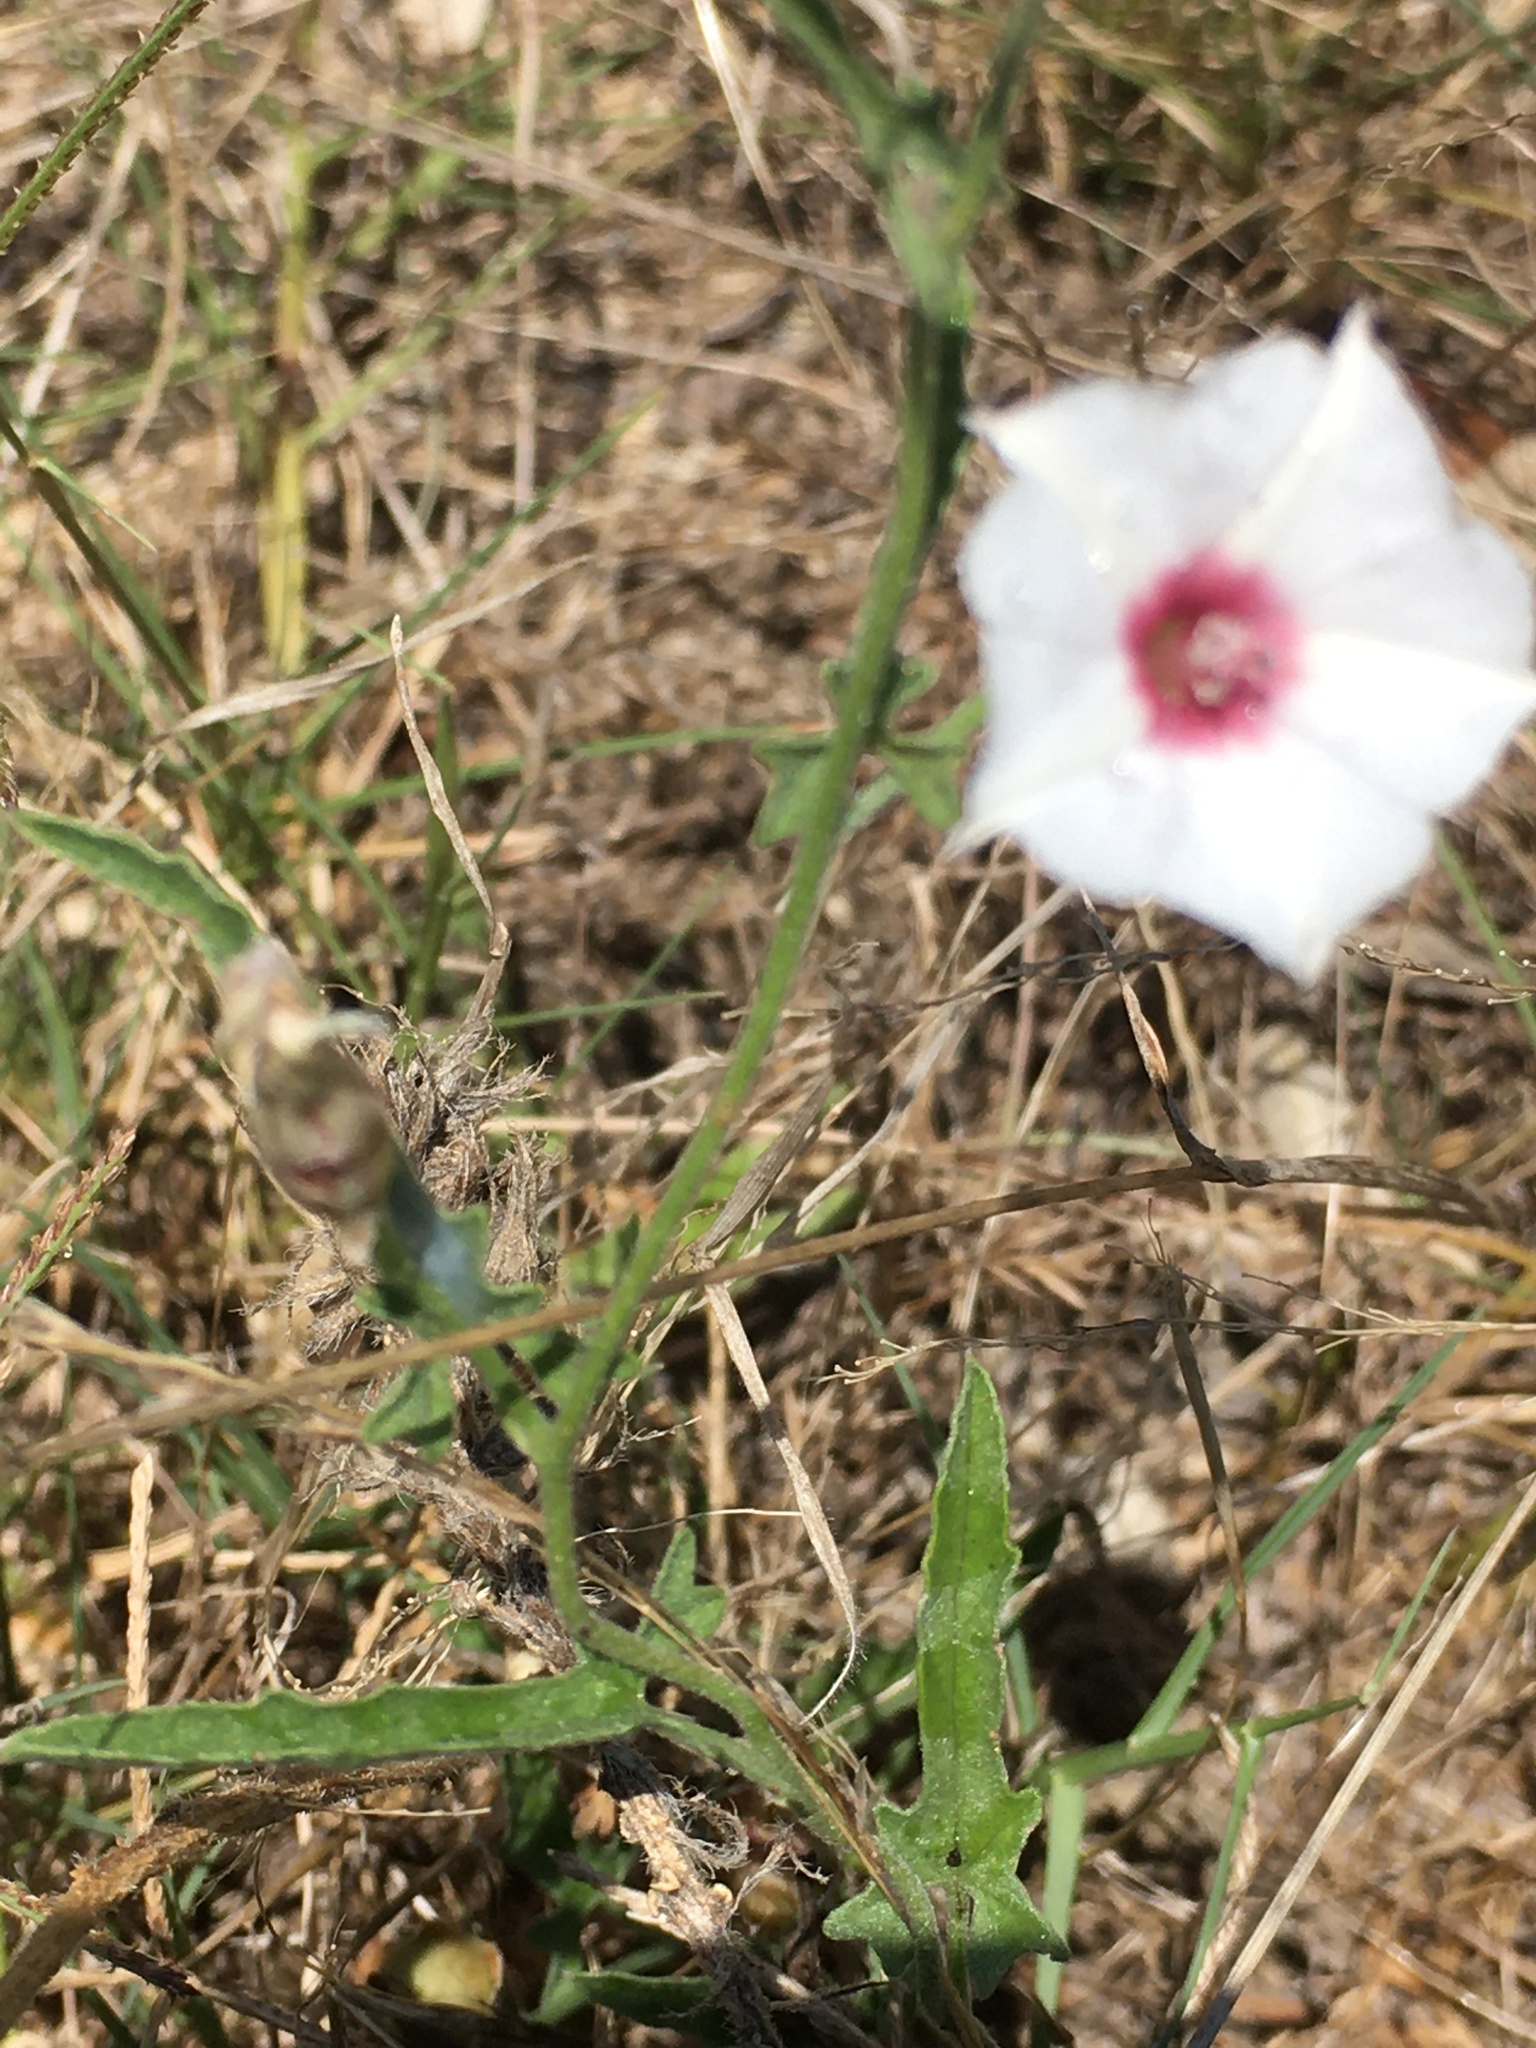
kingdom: Plantae
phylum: Tracheophyta
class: Magnoliopsida
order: Solanales
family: Convolvulaceae
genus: Convolvulus
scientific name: Convolvulus equitans
